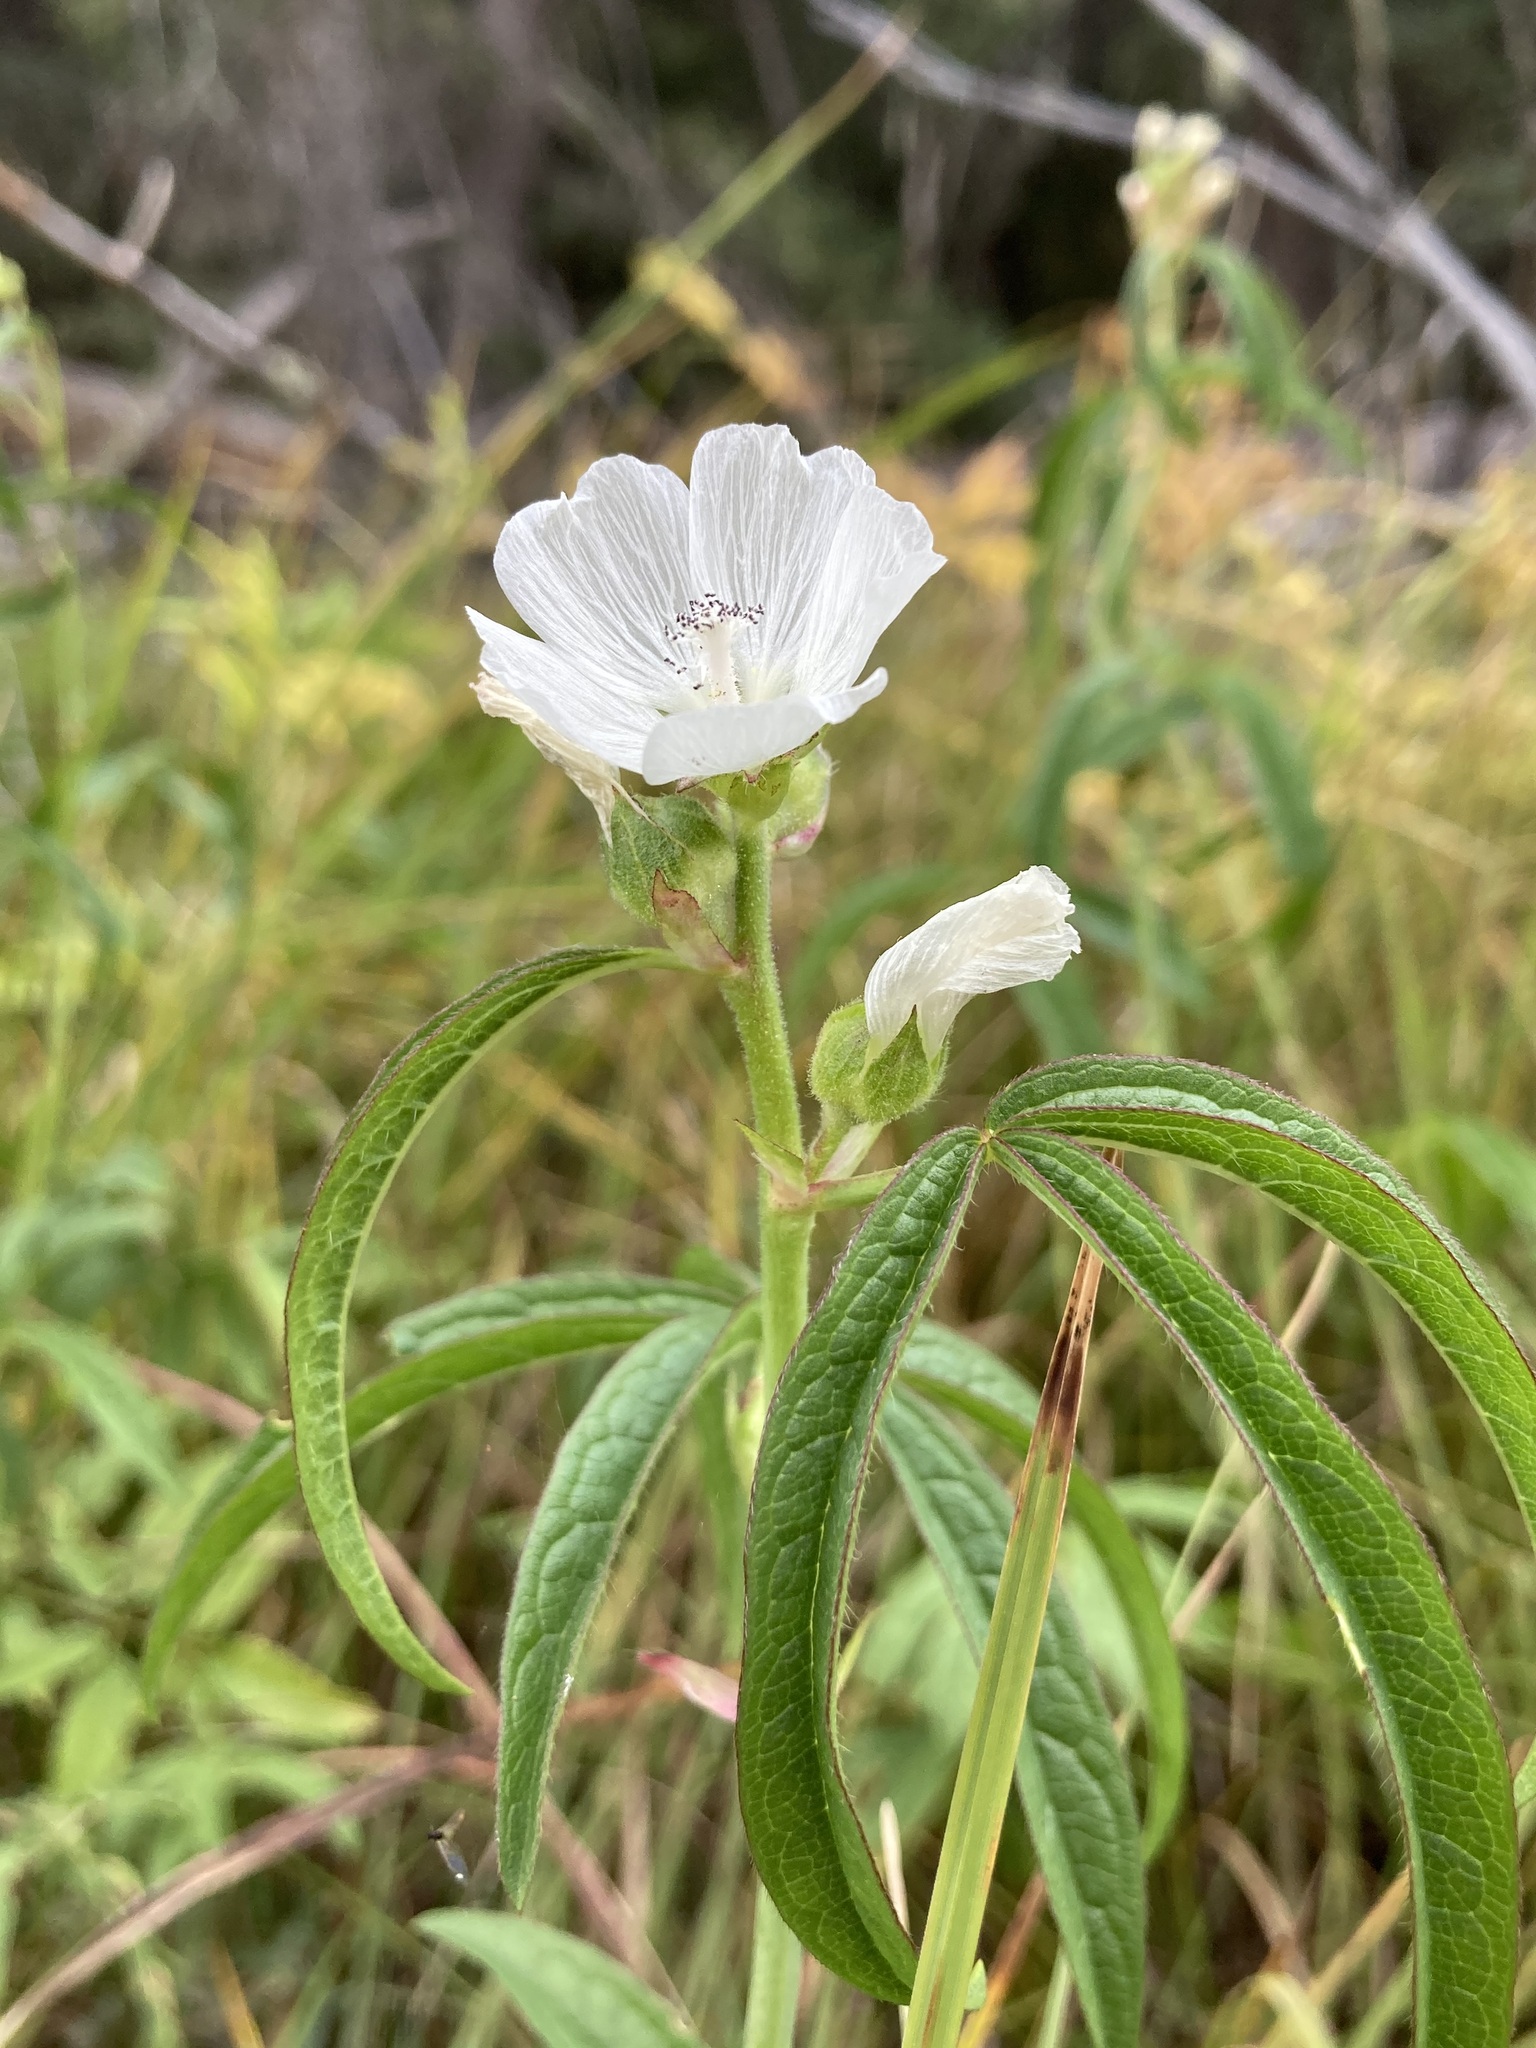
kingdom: Plantae
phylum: Tracheophyta
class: Magnoliopsida
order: Malvales
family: Malvaceae
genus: Sidalcea
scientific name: Sidalcea candida
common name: Prairie-mallow
